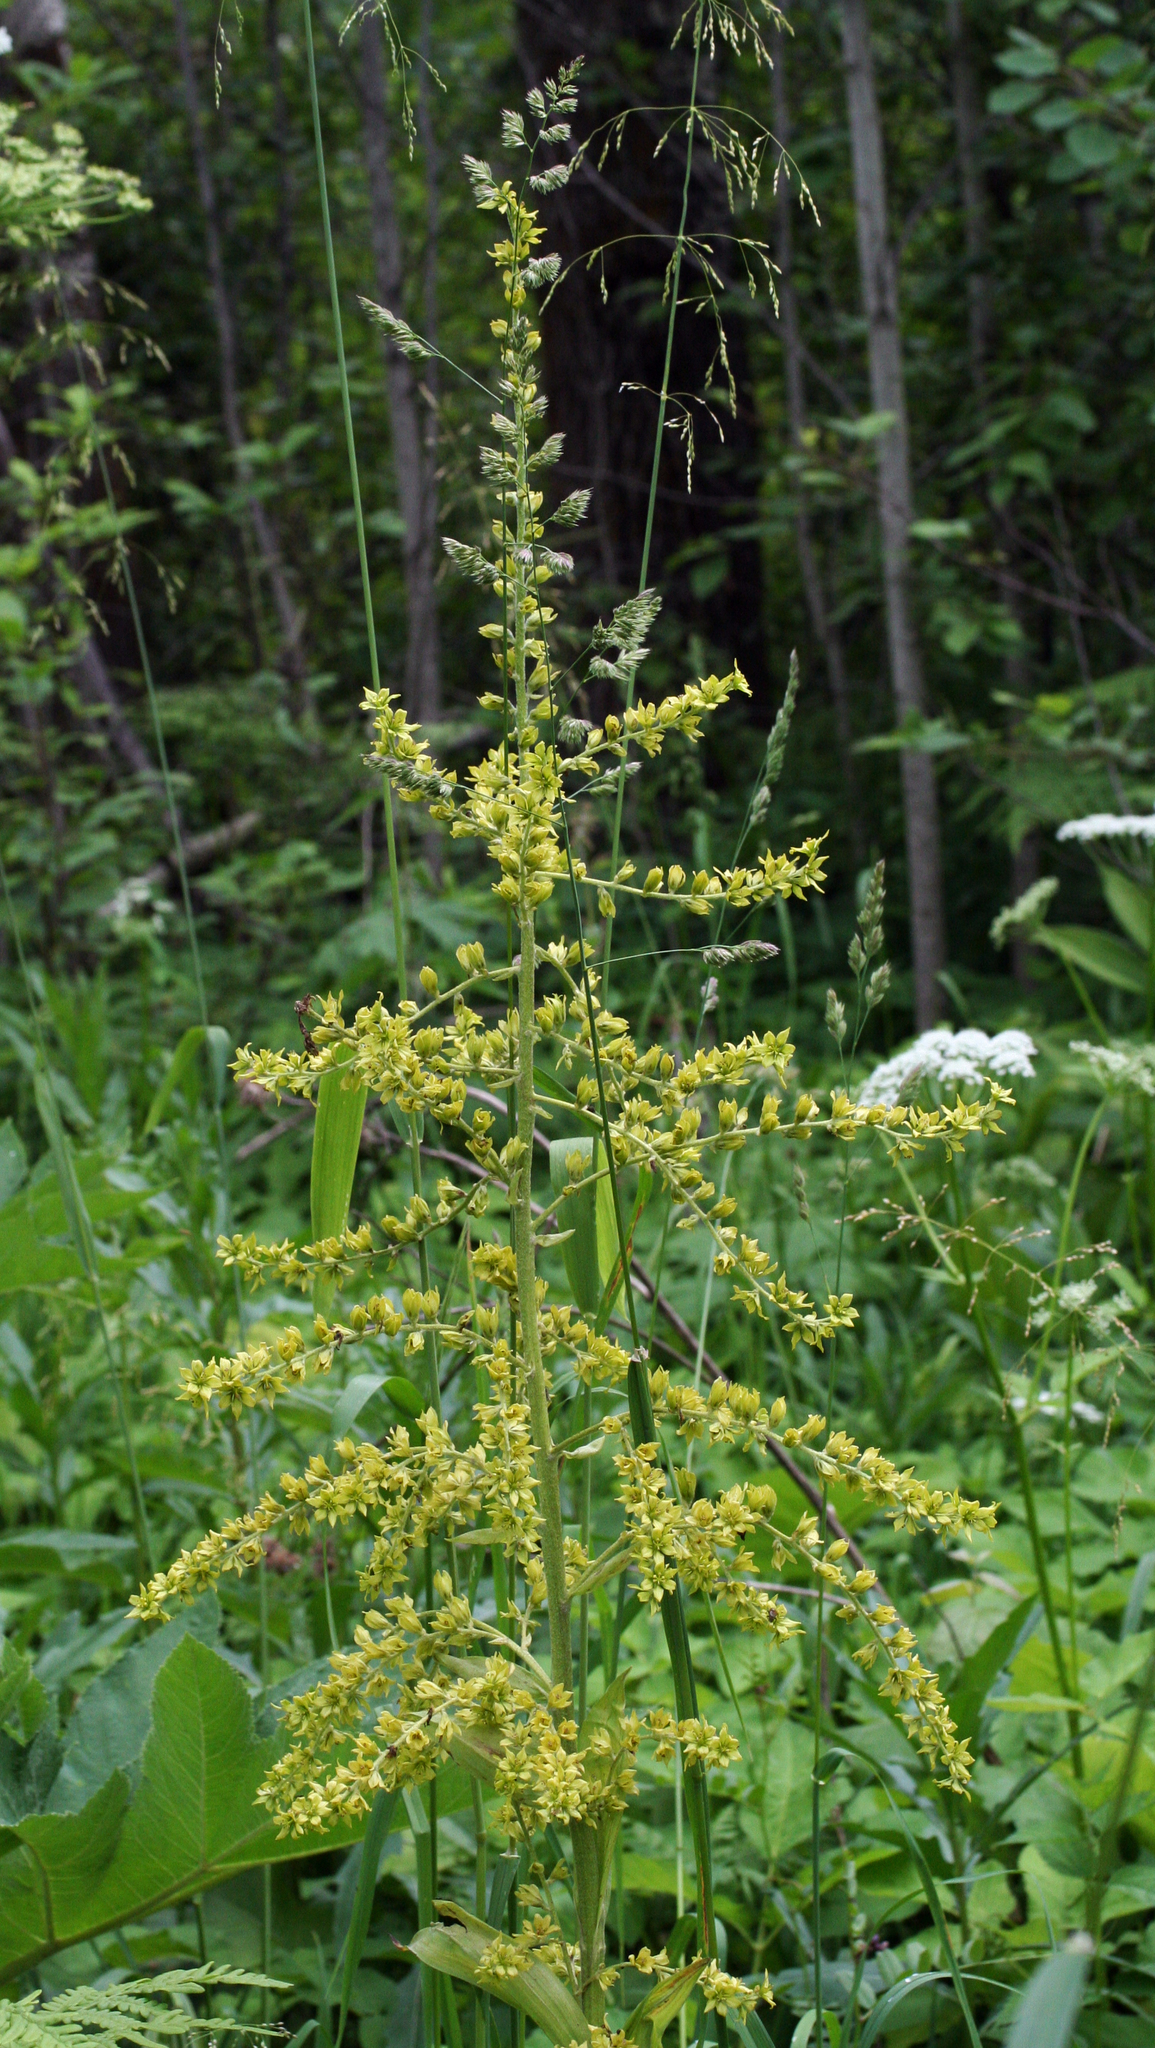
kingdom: Plantae
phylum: Tracheophyta
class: Liliopsida
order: Liliales
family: Melanthiaceae
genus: Veratrum
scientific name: Veratrum lobelianum
